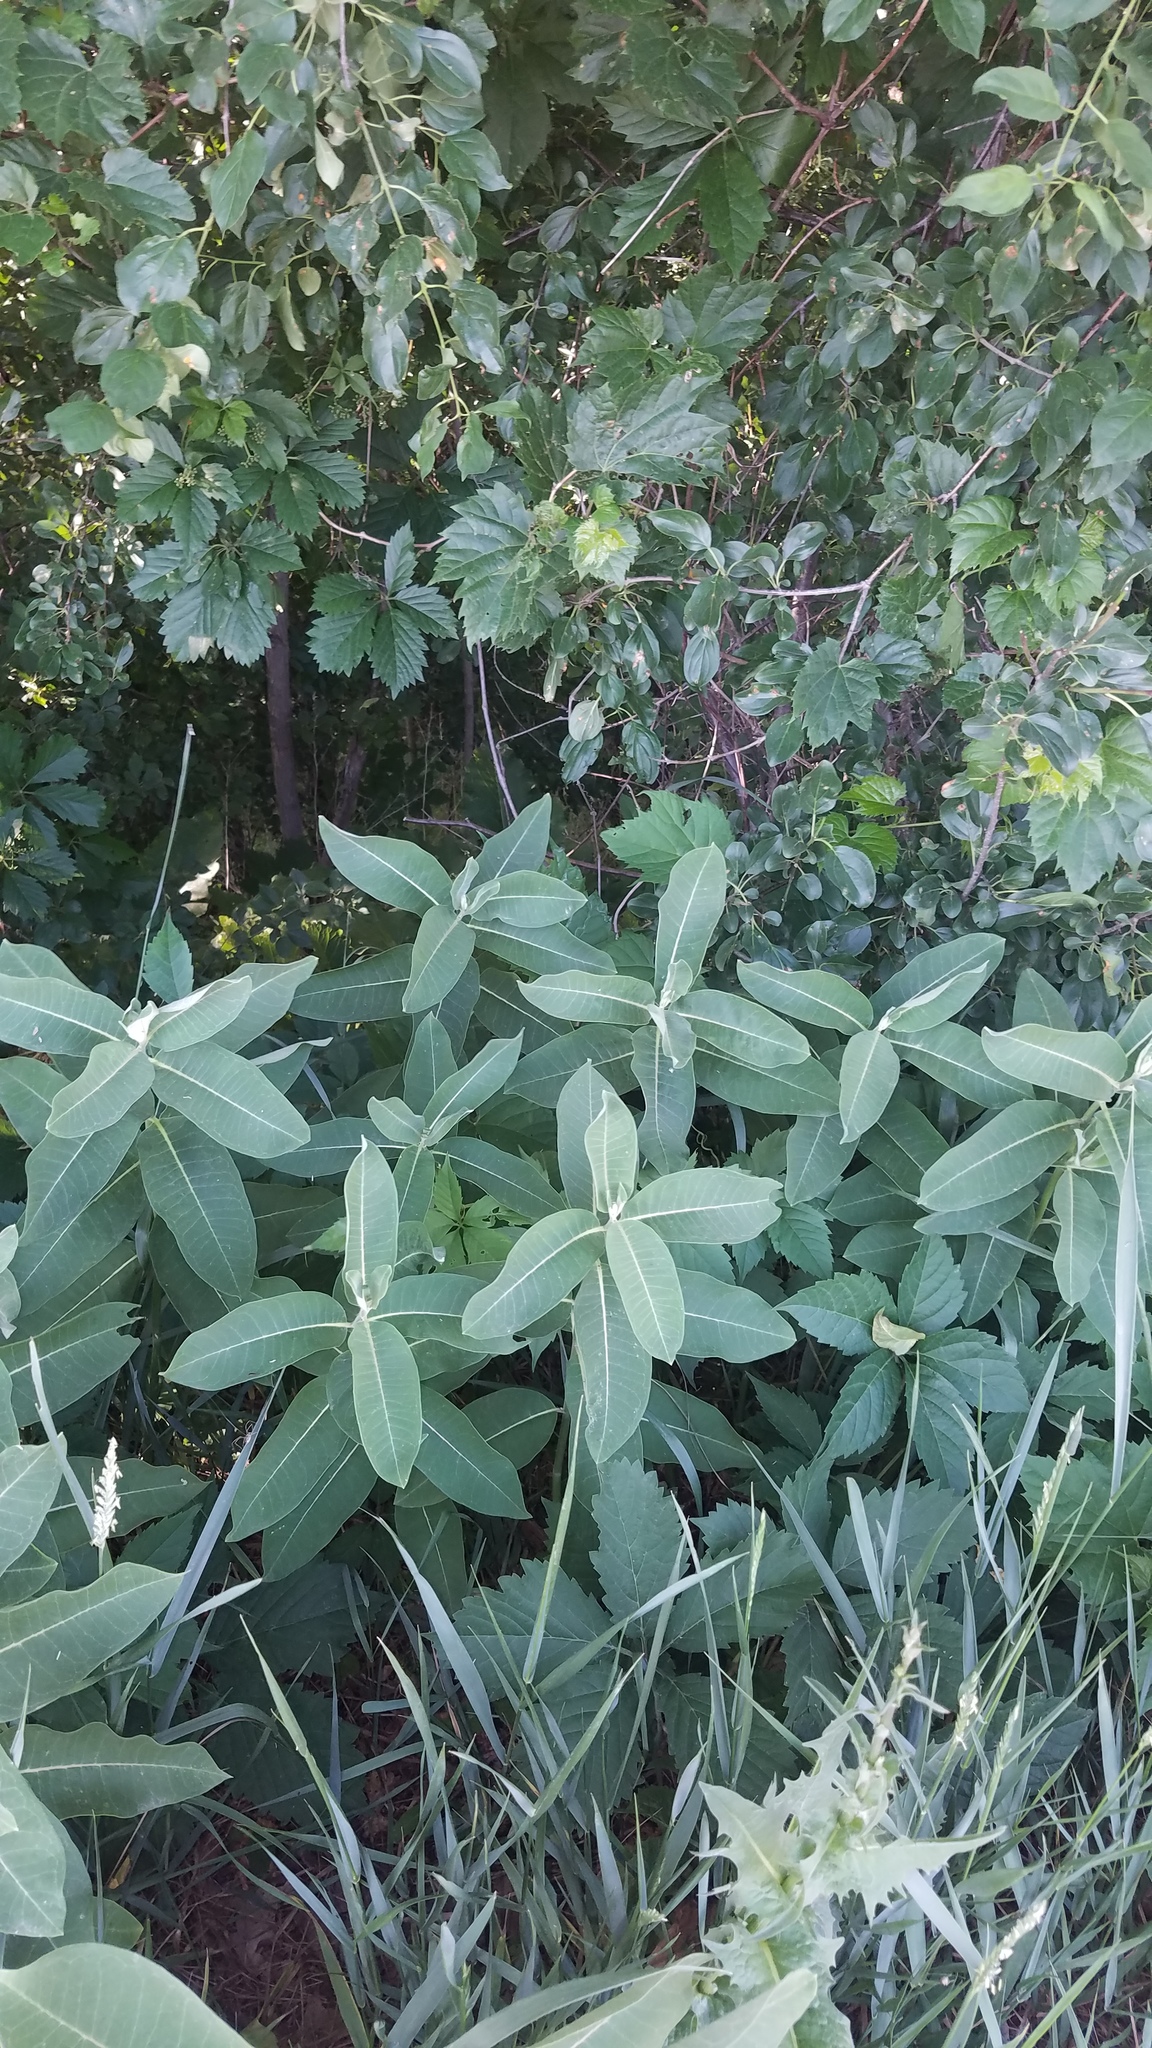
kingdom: Plantae
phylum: Tracheophyta
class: Magnoliopsida
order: Gentianales
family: Apocynaceae
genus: Asclepias
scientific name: Asclepias syriaca
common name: Common milkweed
